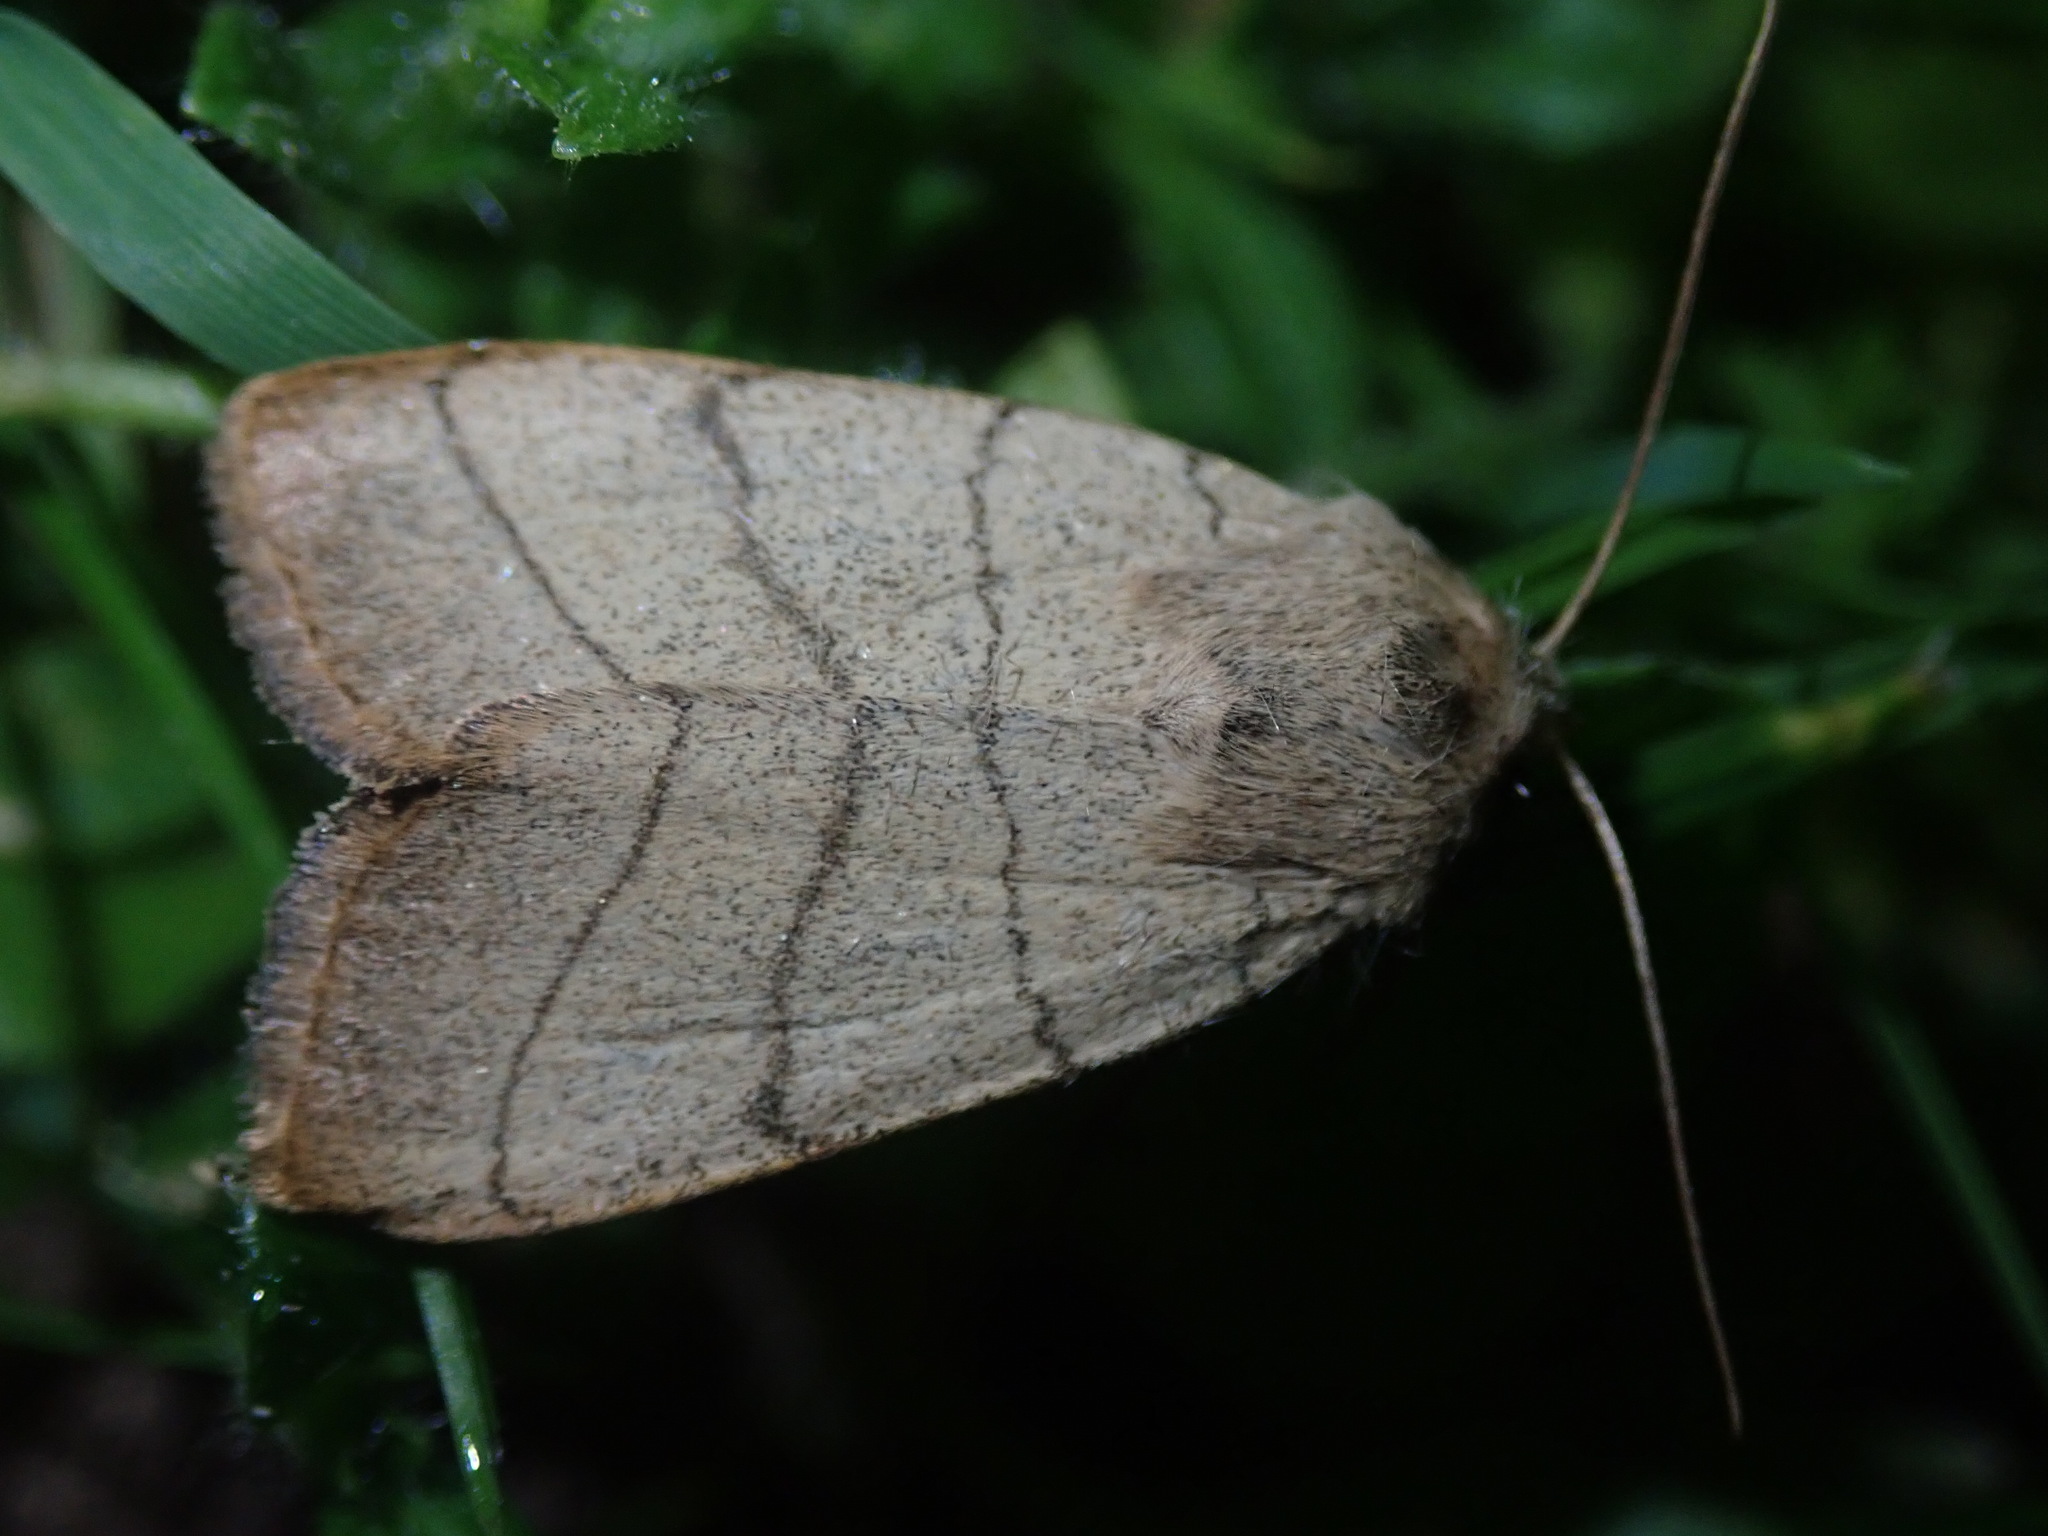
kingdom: Animalia
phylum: Arthropoda
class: Insecta
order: Lepidoptera
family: Noctuidae
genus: Charanyca
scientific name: Charanyca trigrammica
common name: Treble lines
